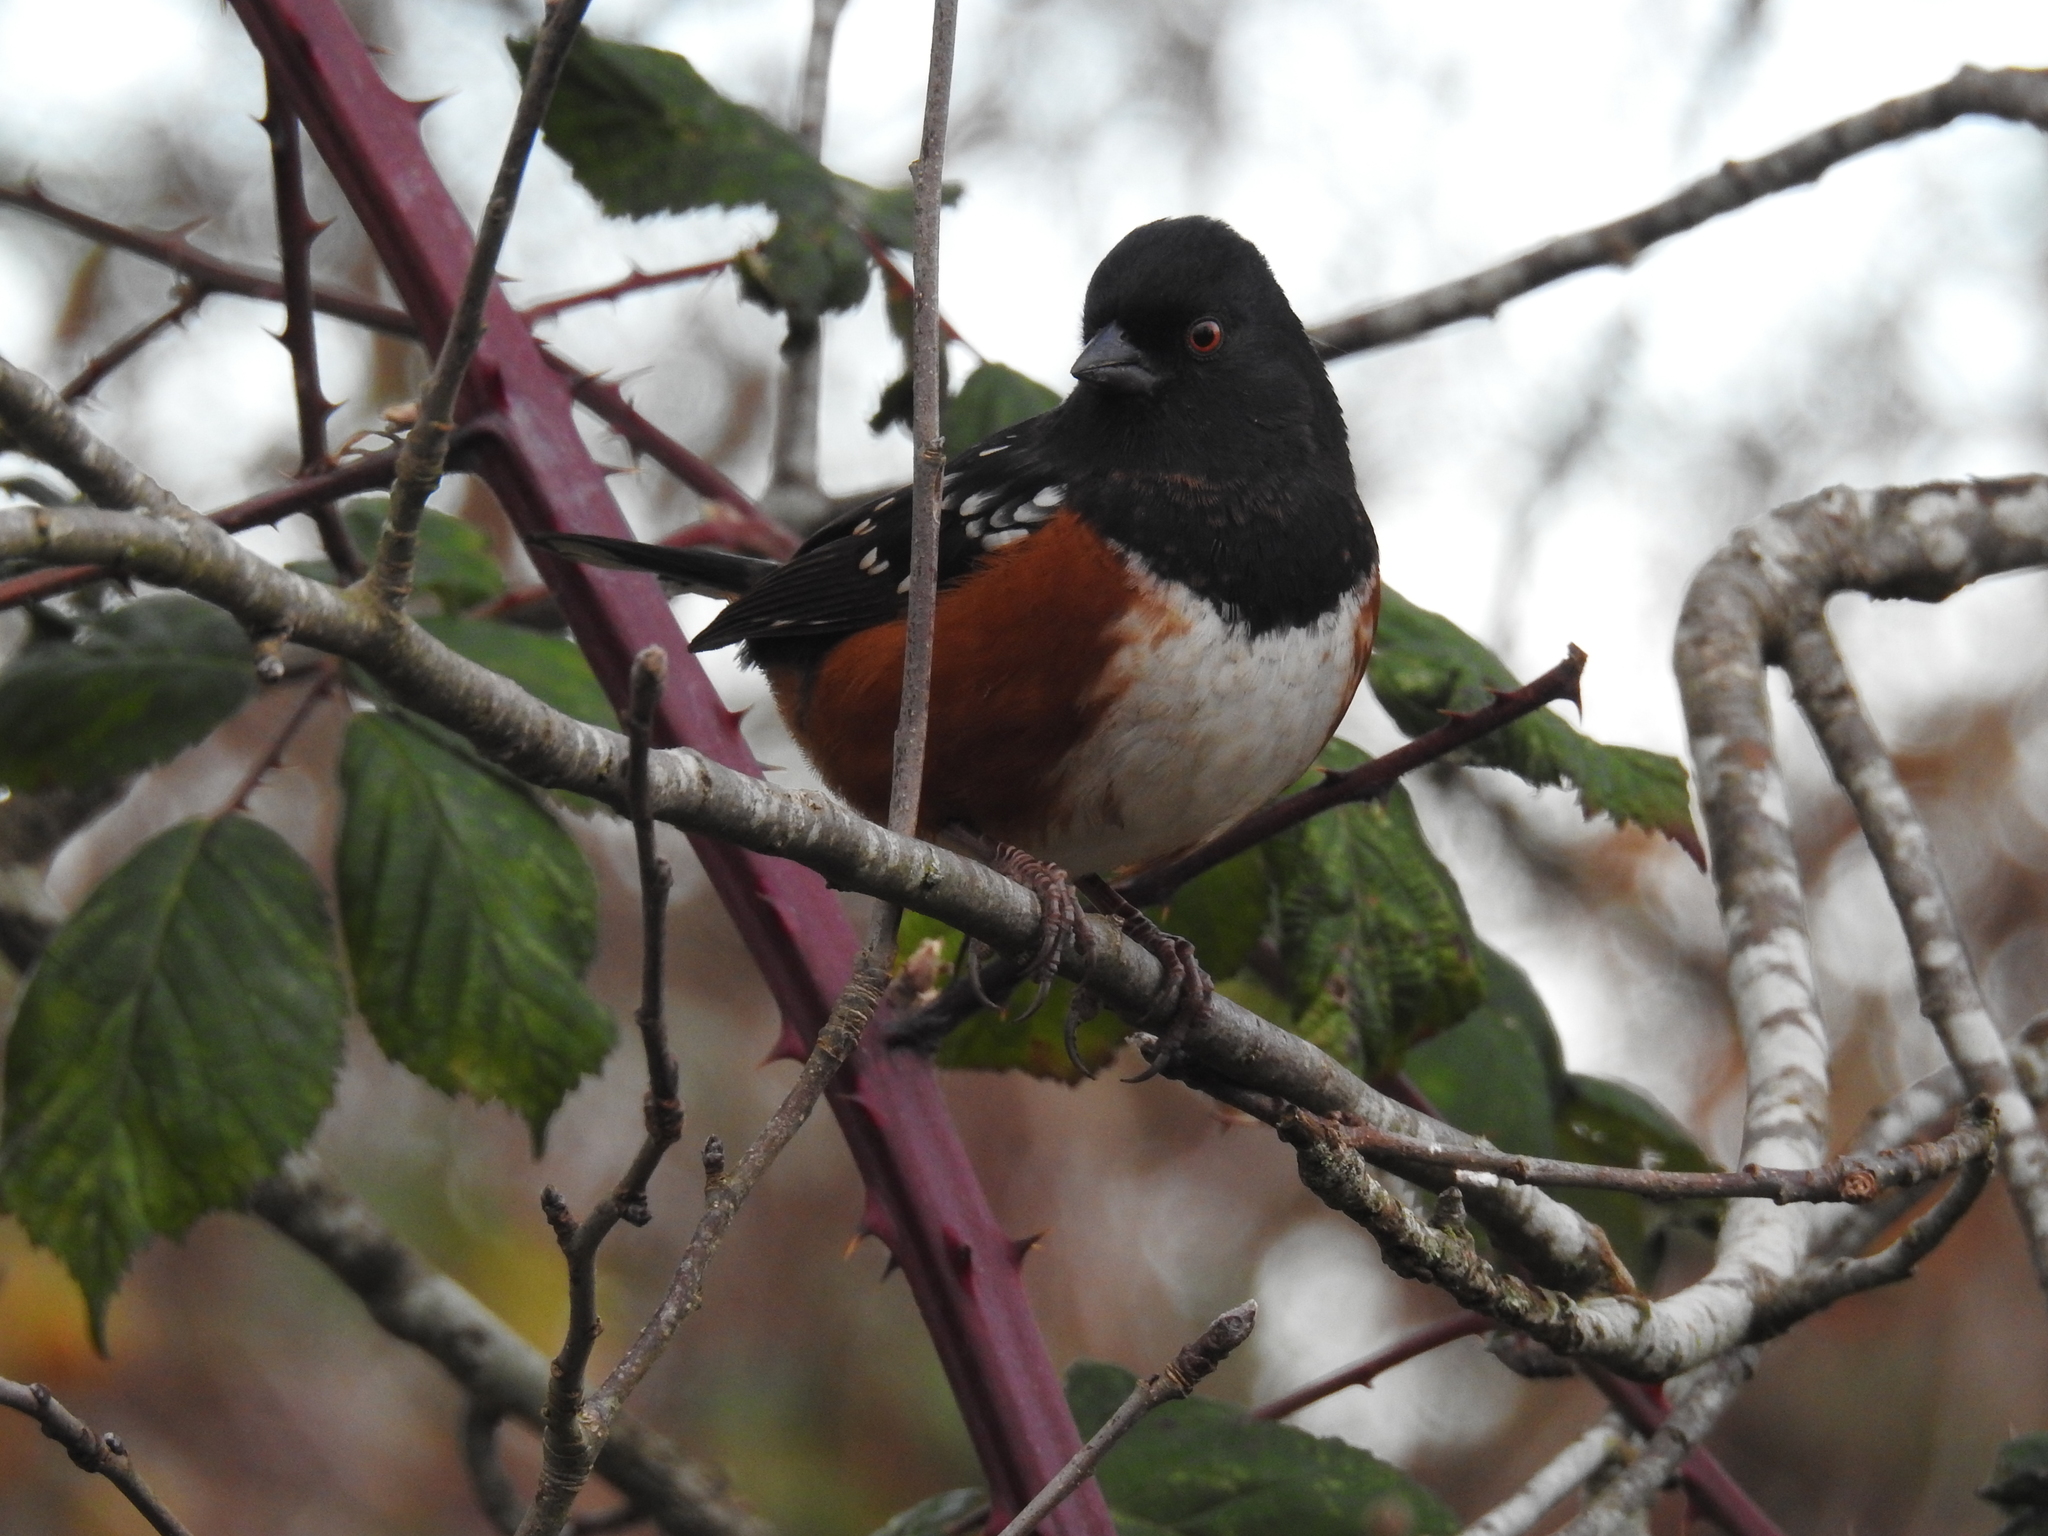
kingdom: Animalia
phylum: Chordata
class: Aves
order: Passeriformes
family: Passerellidae
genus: Pipilo
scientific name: Pipilo maculatus
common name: Spotted towhee
